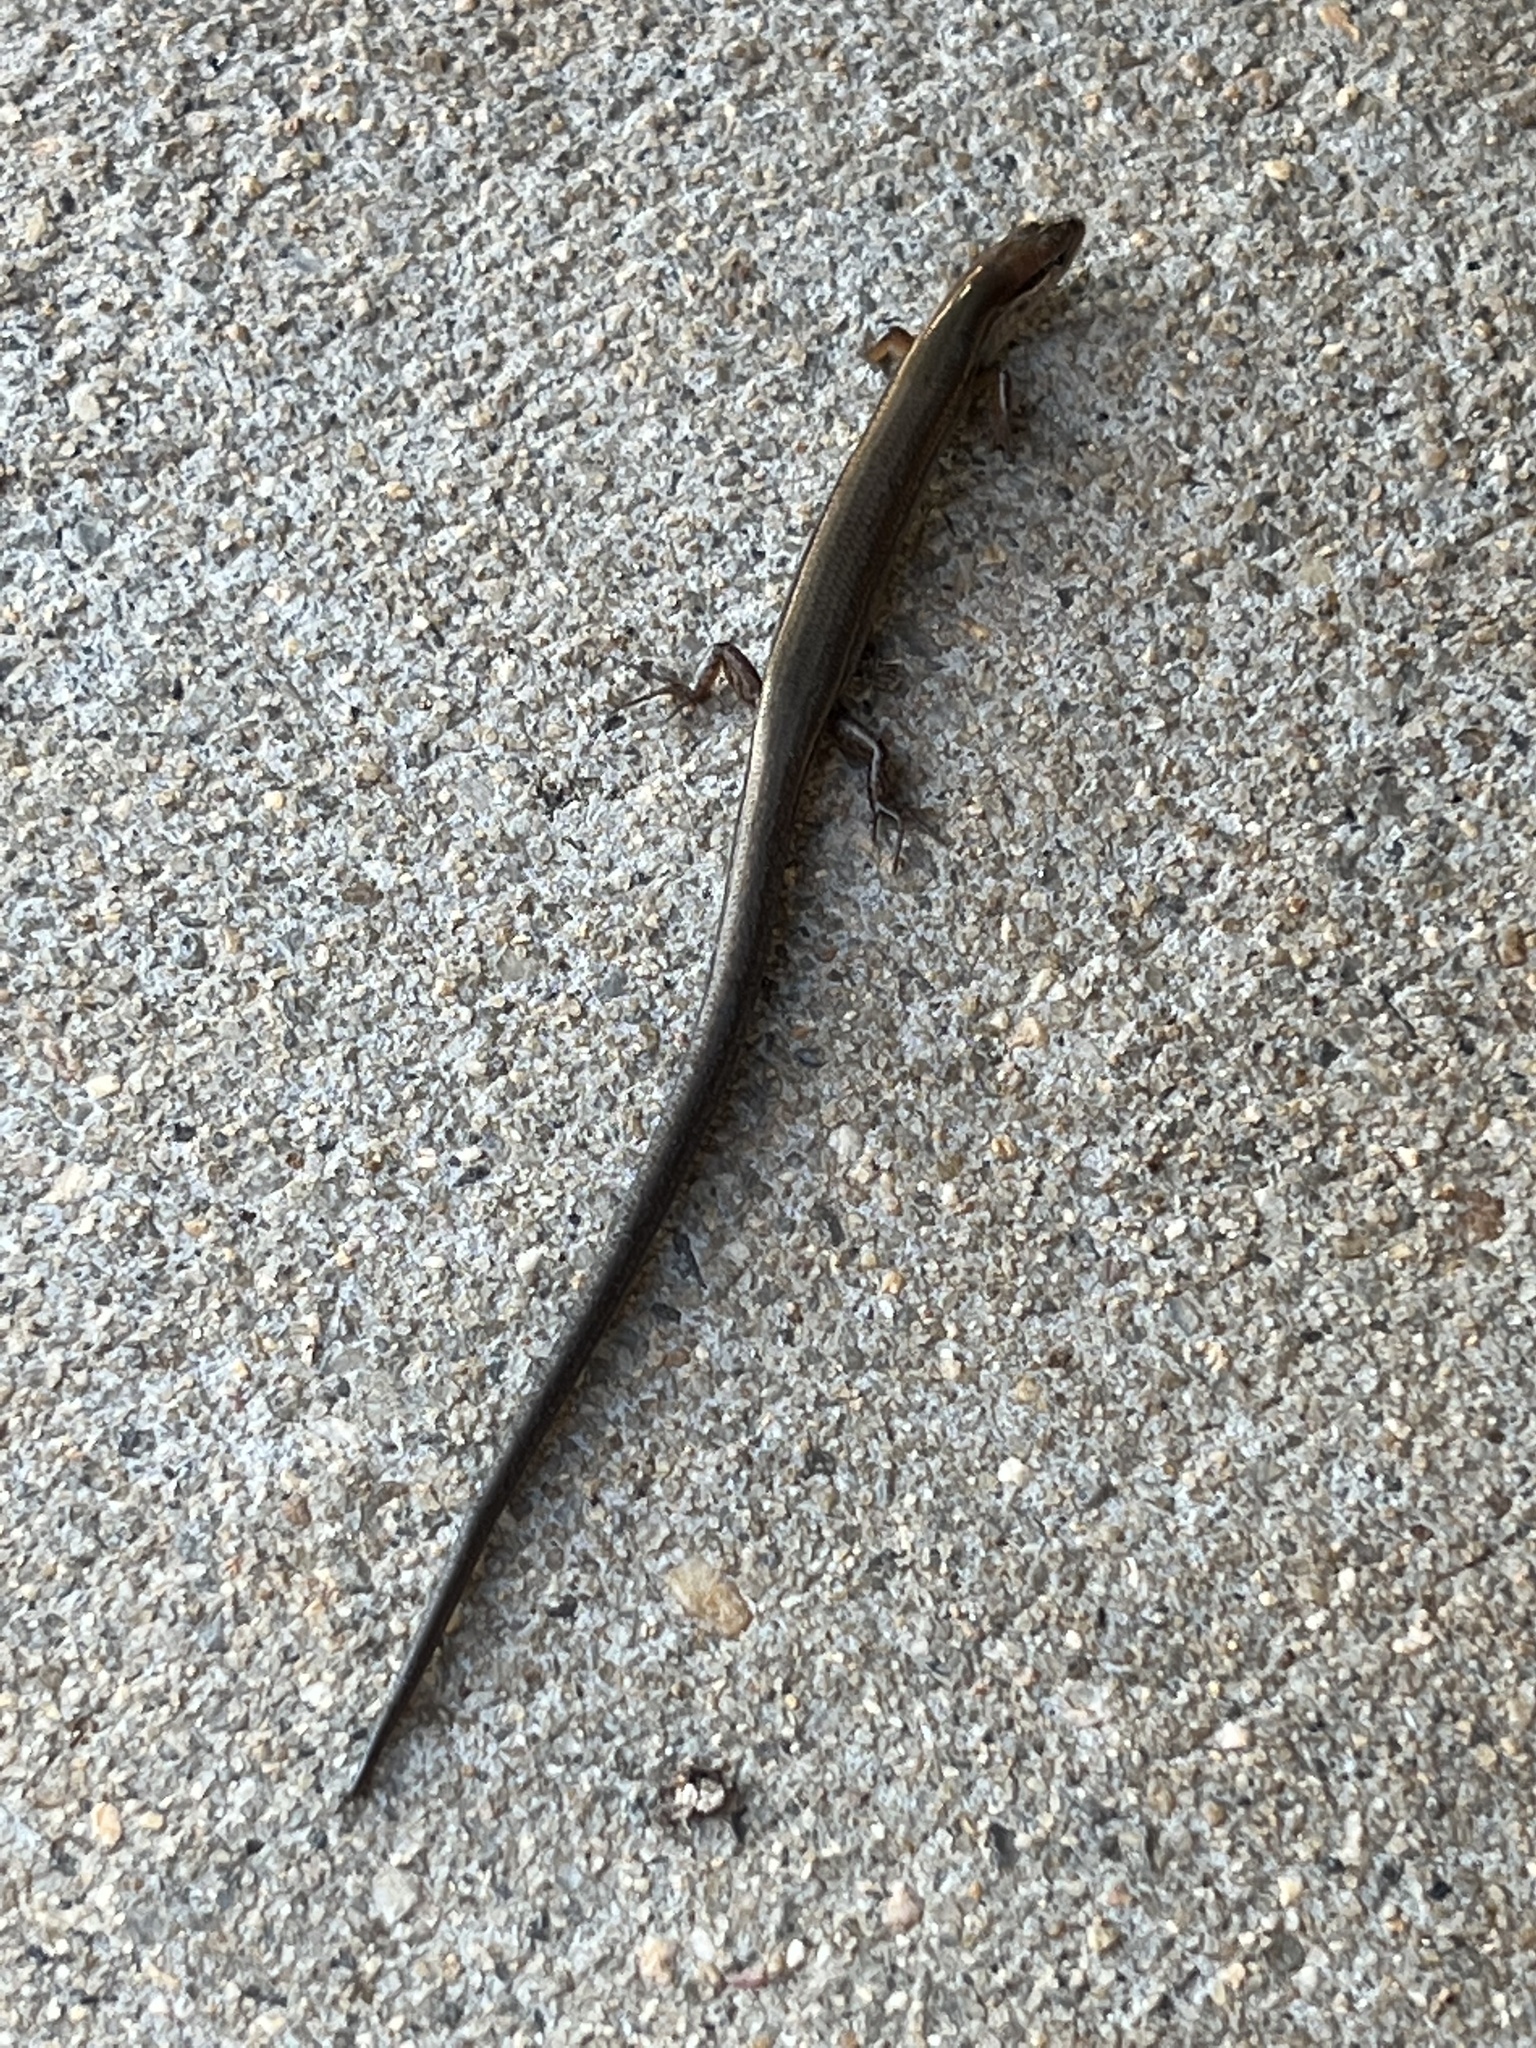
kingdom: Animalia
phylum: Chordata
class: Squamata
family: Scincidae
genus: Scincella
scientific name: Scincella lateralis
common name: Ground skink
